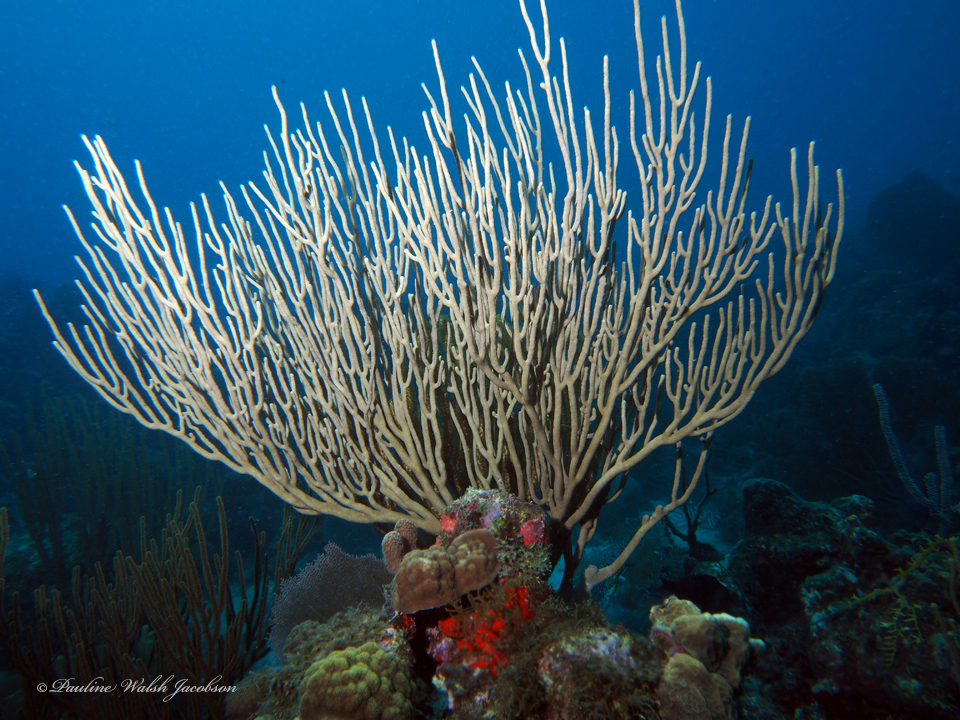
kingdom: Animalia
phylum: Cnidaria
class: Anthozoa
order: Malacalcyonacea
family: Plexauridae
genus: Plexaura
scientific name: Plexaura homomalla
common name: Black sea rod
